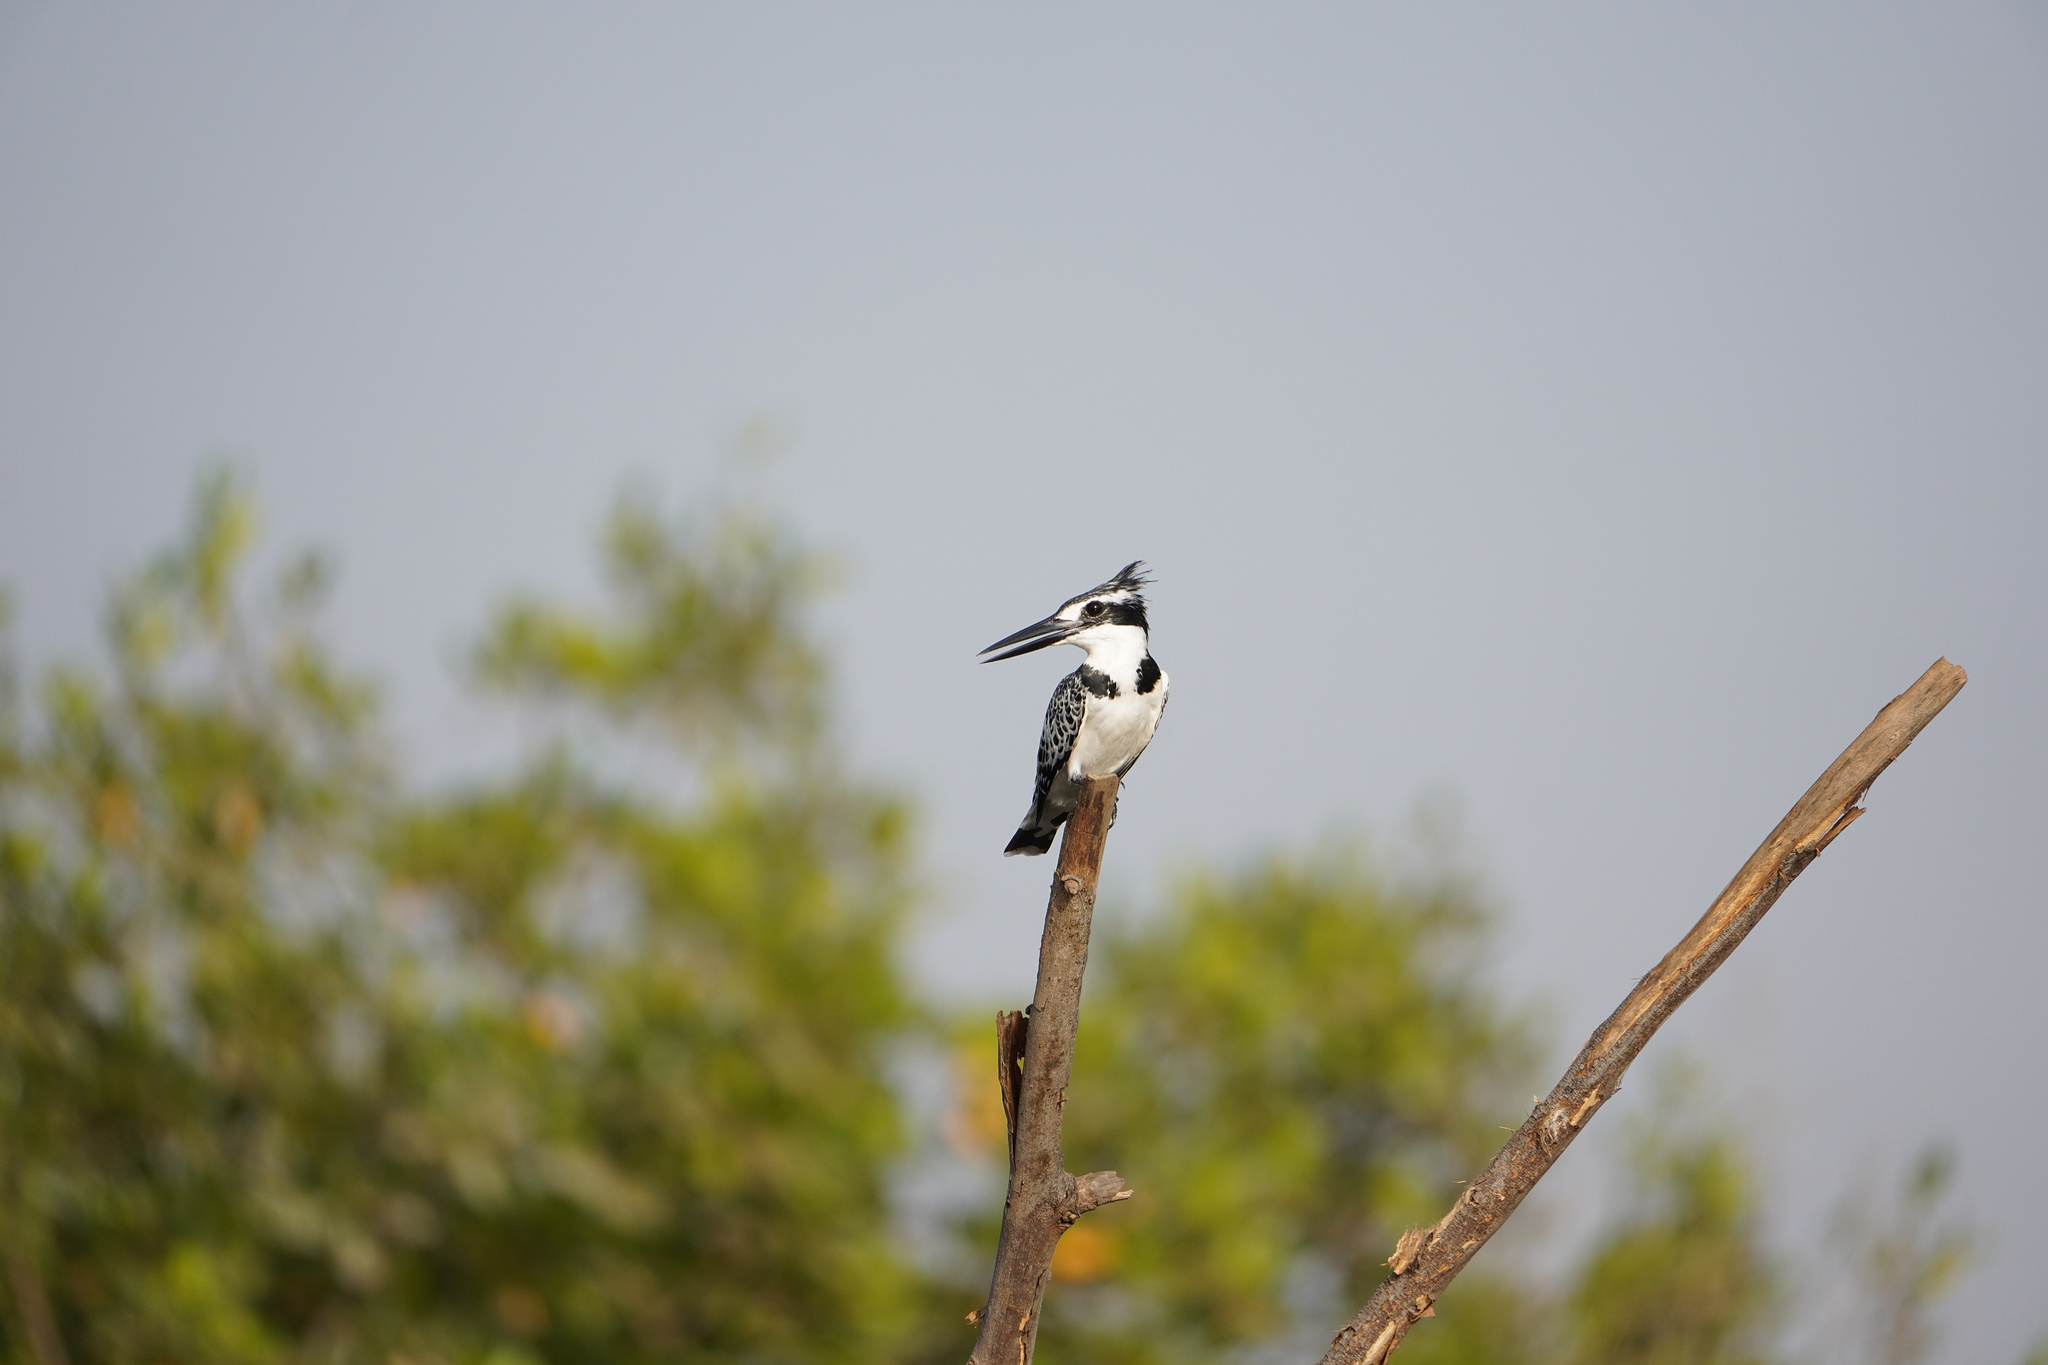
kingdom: Animalia
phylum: Chordata
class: Aves
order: Coraciiformes
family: Alcedinidae
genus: Ceryle
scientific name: Ceryle rudis
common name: Pied kingfisher
